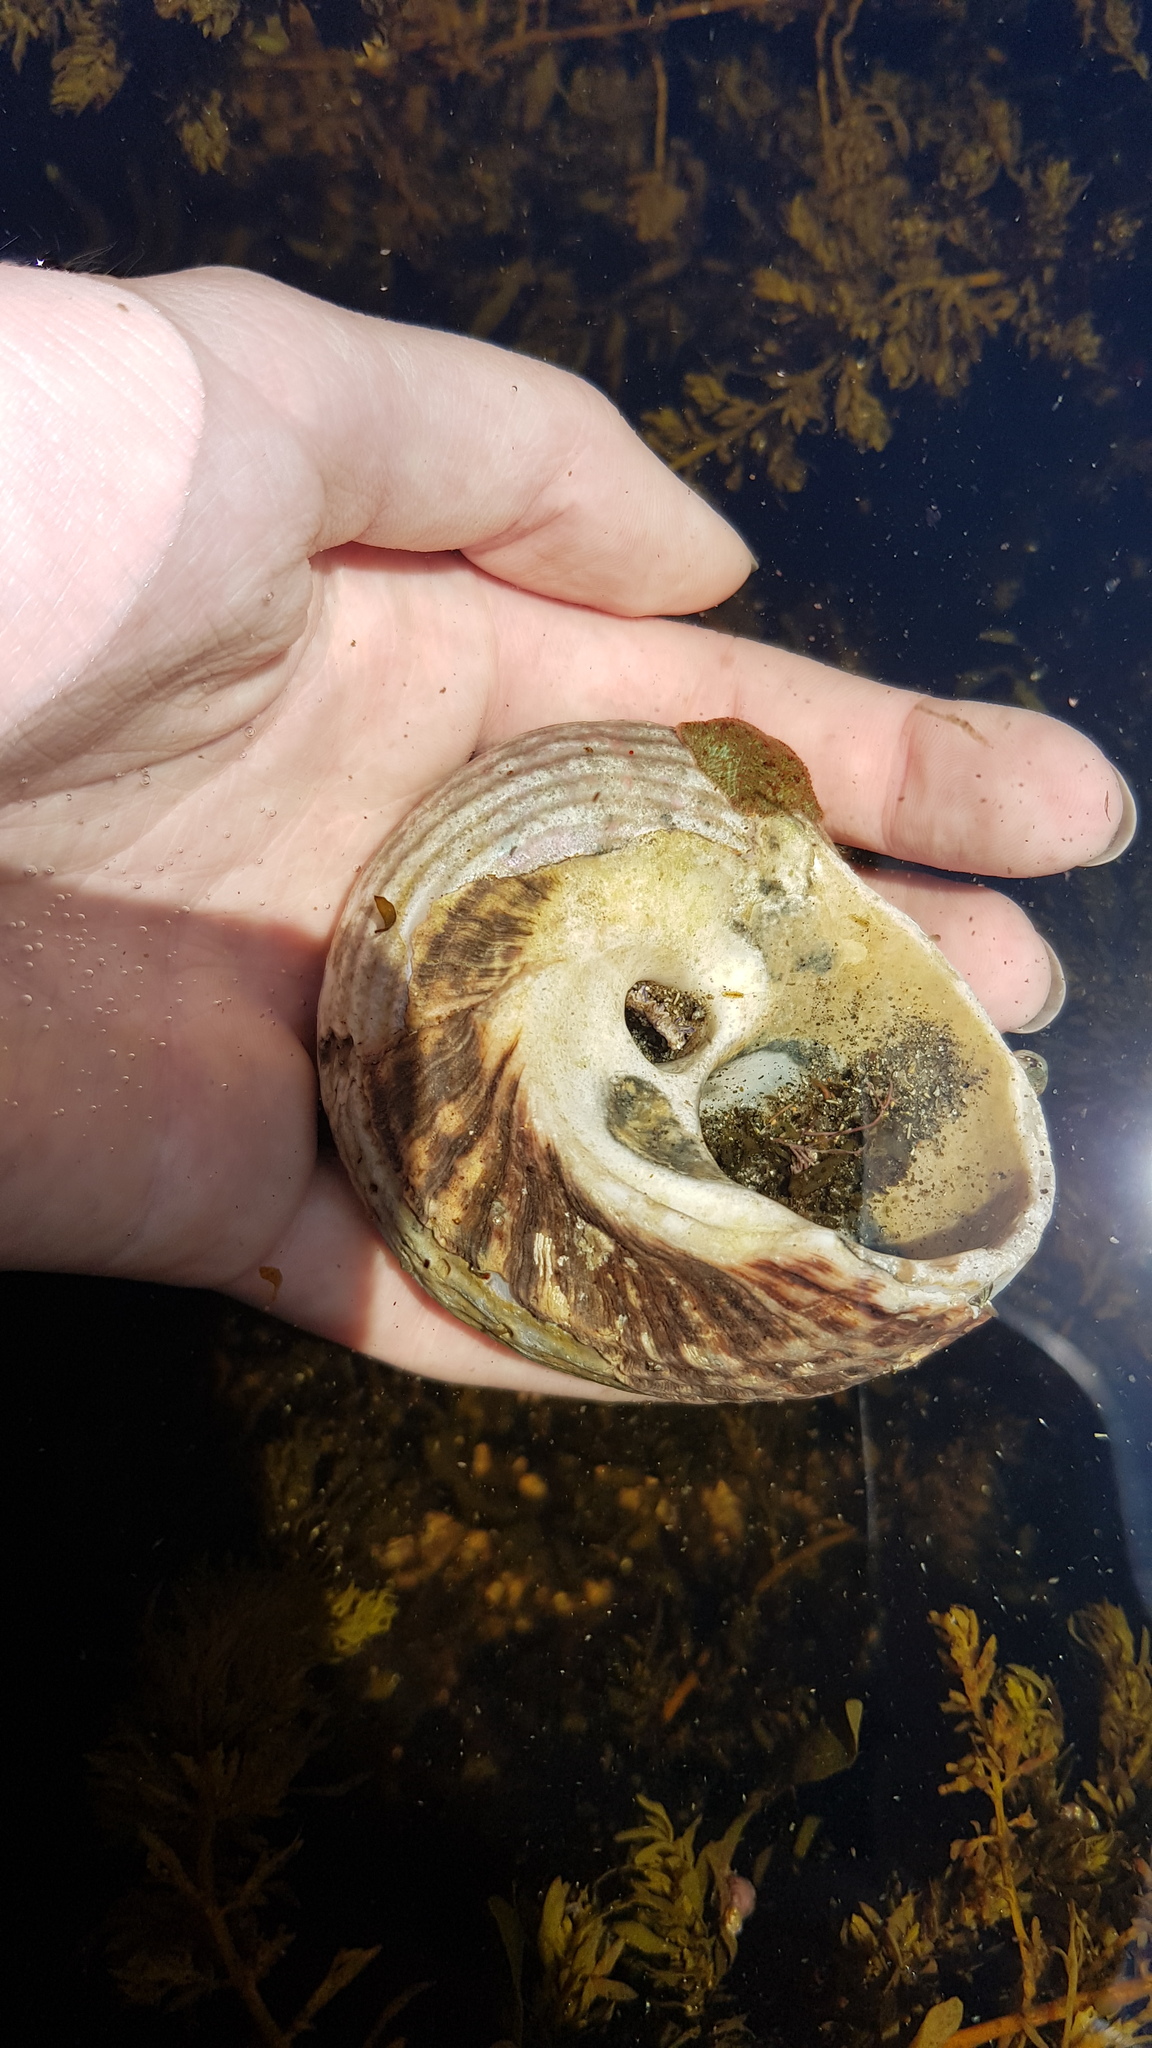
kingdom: Animalia
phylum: Mollusca
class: Gastropoda
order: Trochida
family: Turbinidae
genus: Lunella
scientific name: Lunella torquata
